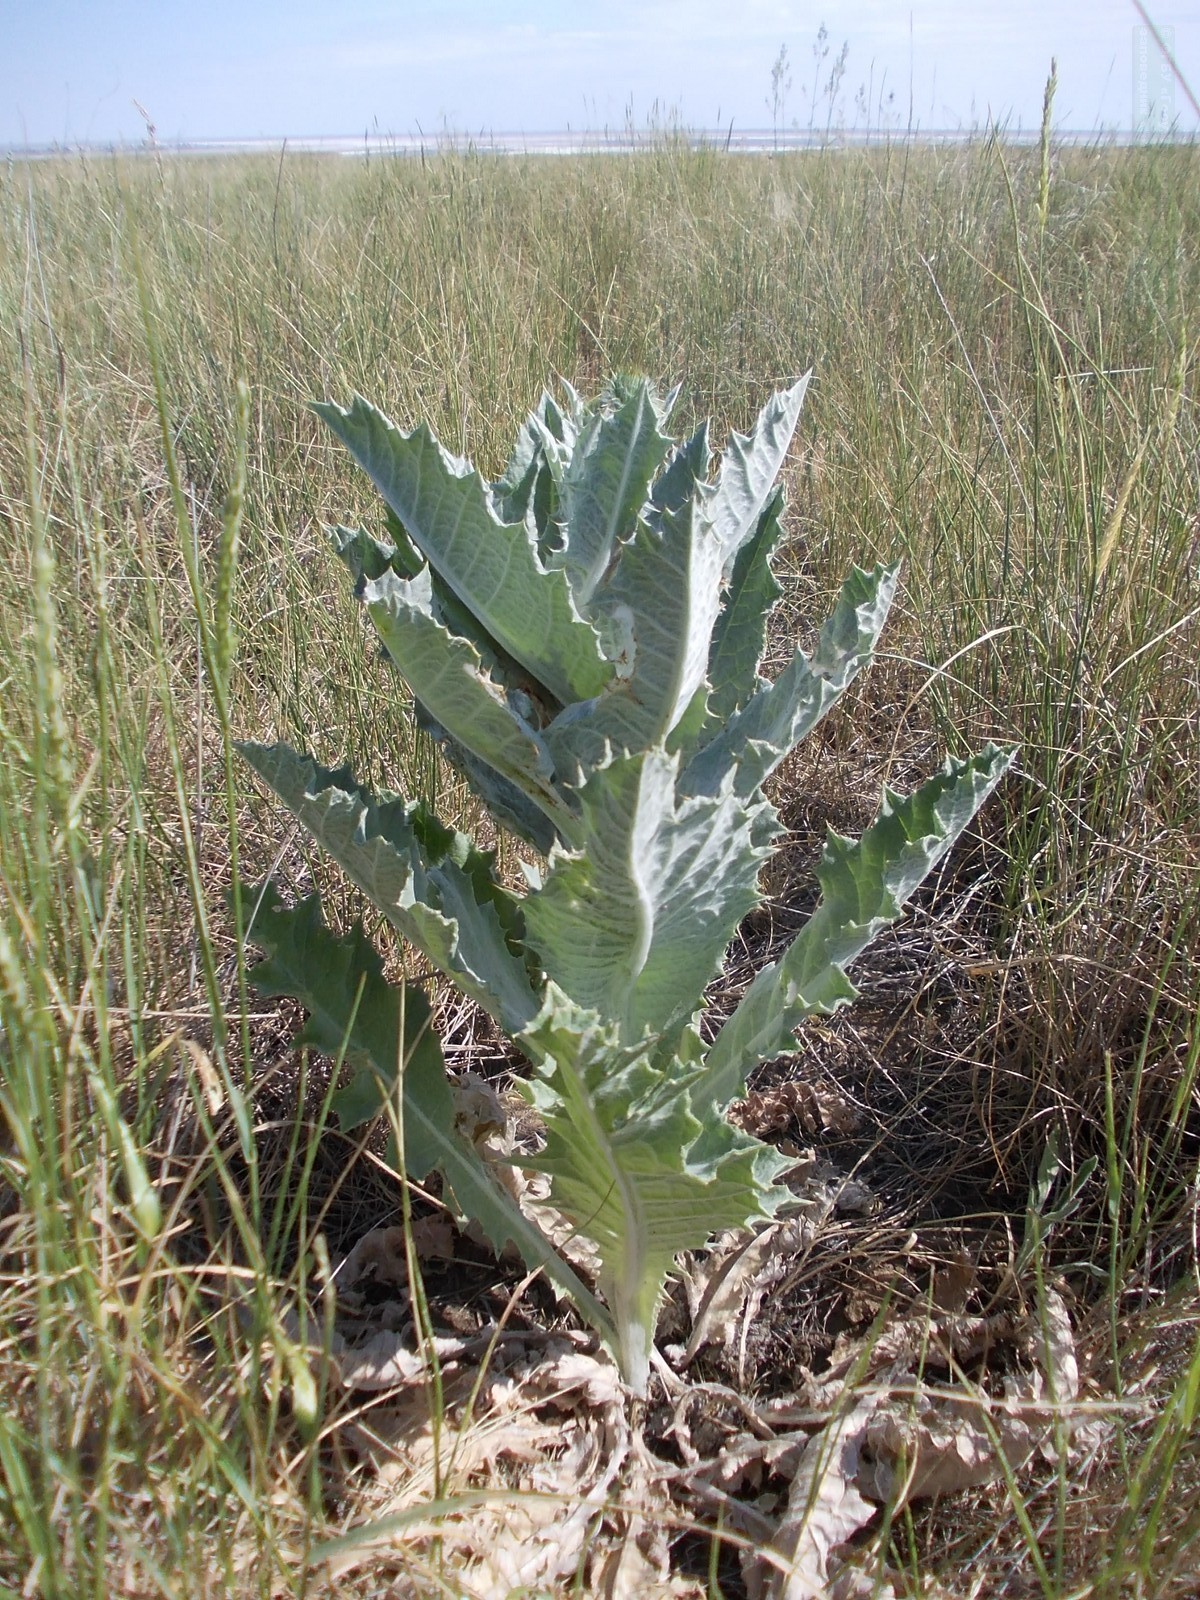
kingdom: Plantae
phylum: Tracheophyta
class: Magnoliopsida
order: Asterales
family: Asteraceae
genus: Onopordum
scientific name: Onopordum acanthium
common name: Scotch thistle
